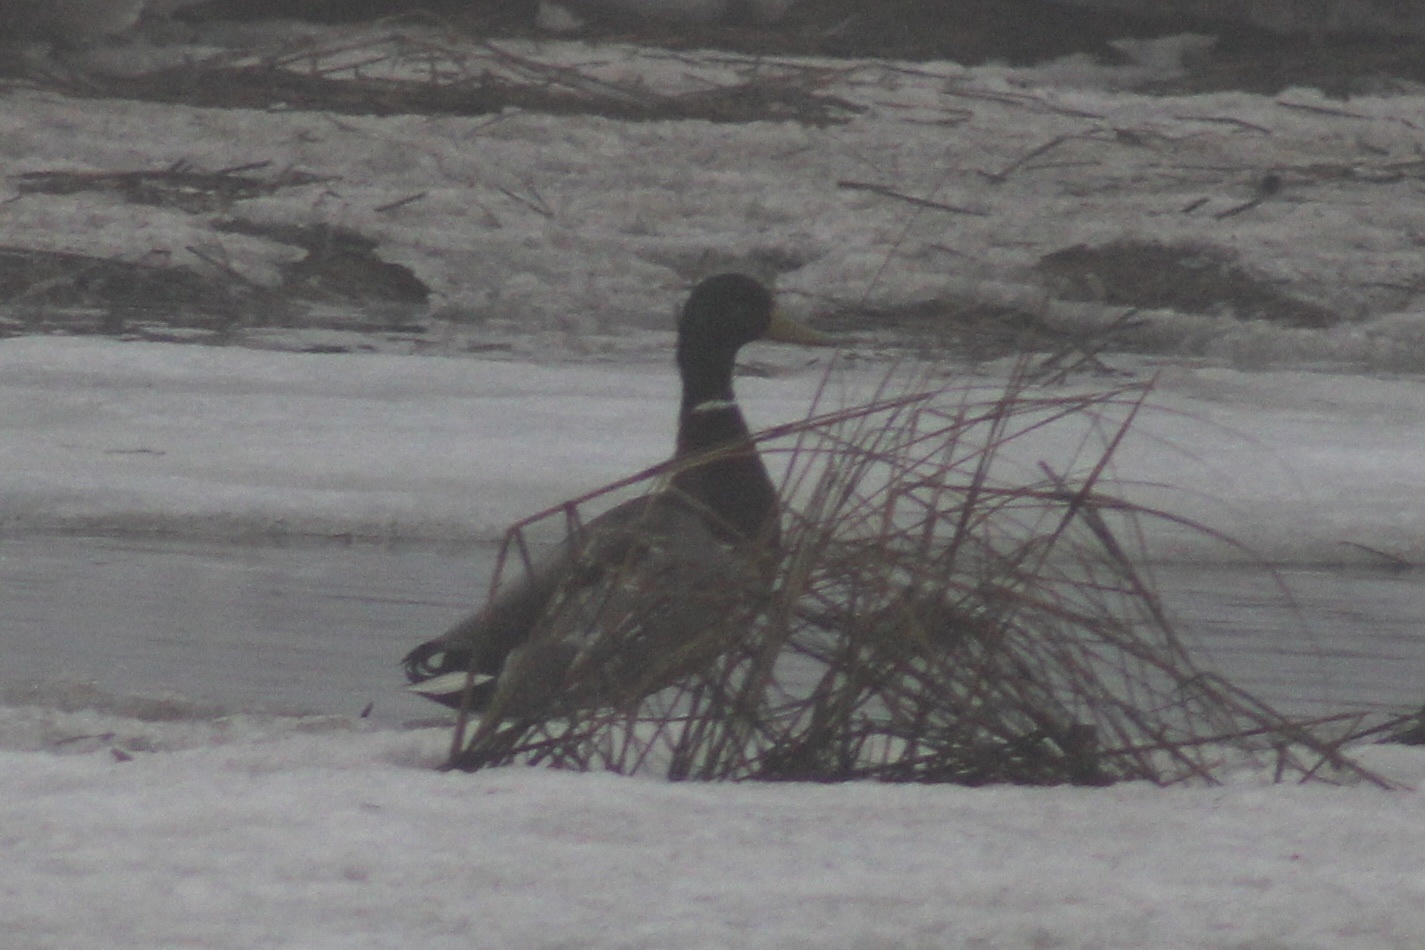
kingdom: Animalia
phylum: Chordata
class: Aves
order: Anseriformes
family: Anatidae
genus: Anas
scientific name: Anas platyrhynchos
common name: Mallard
